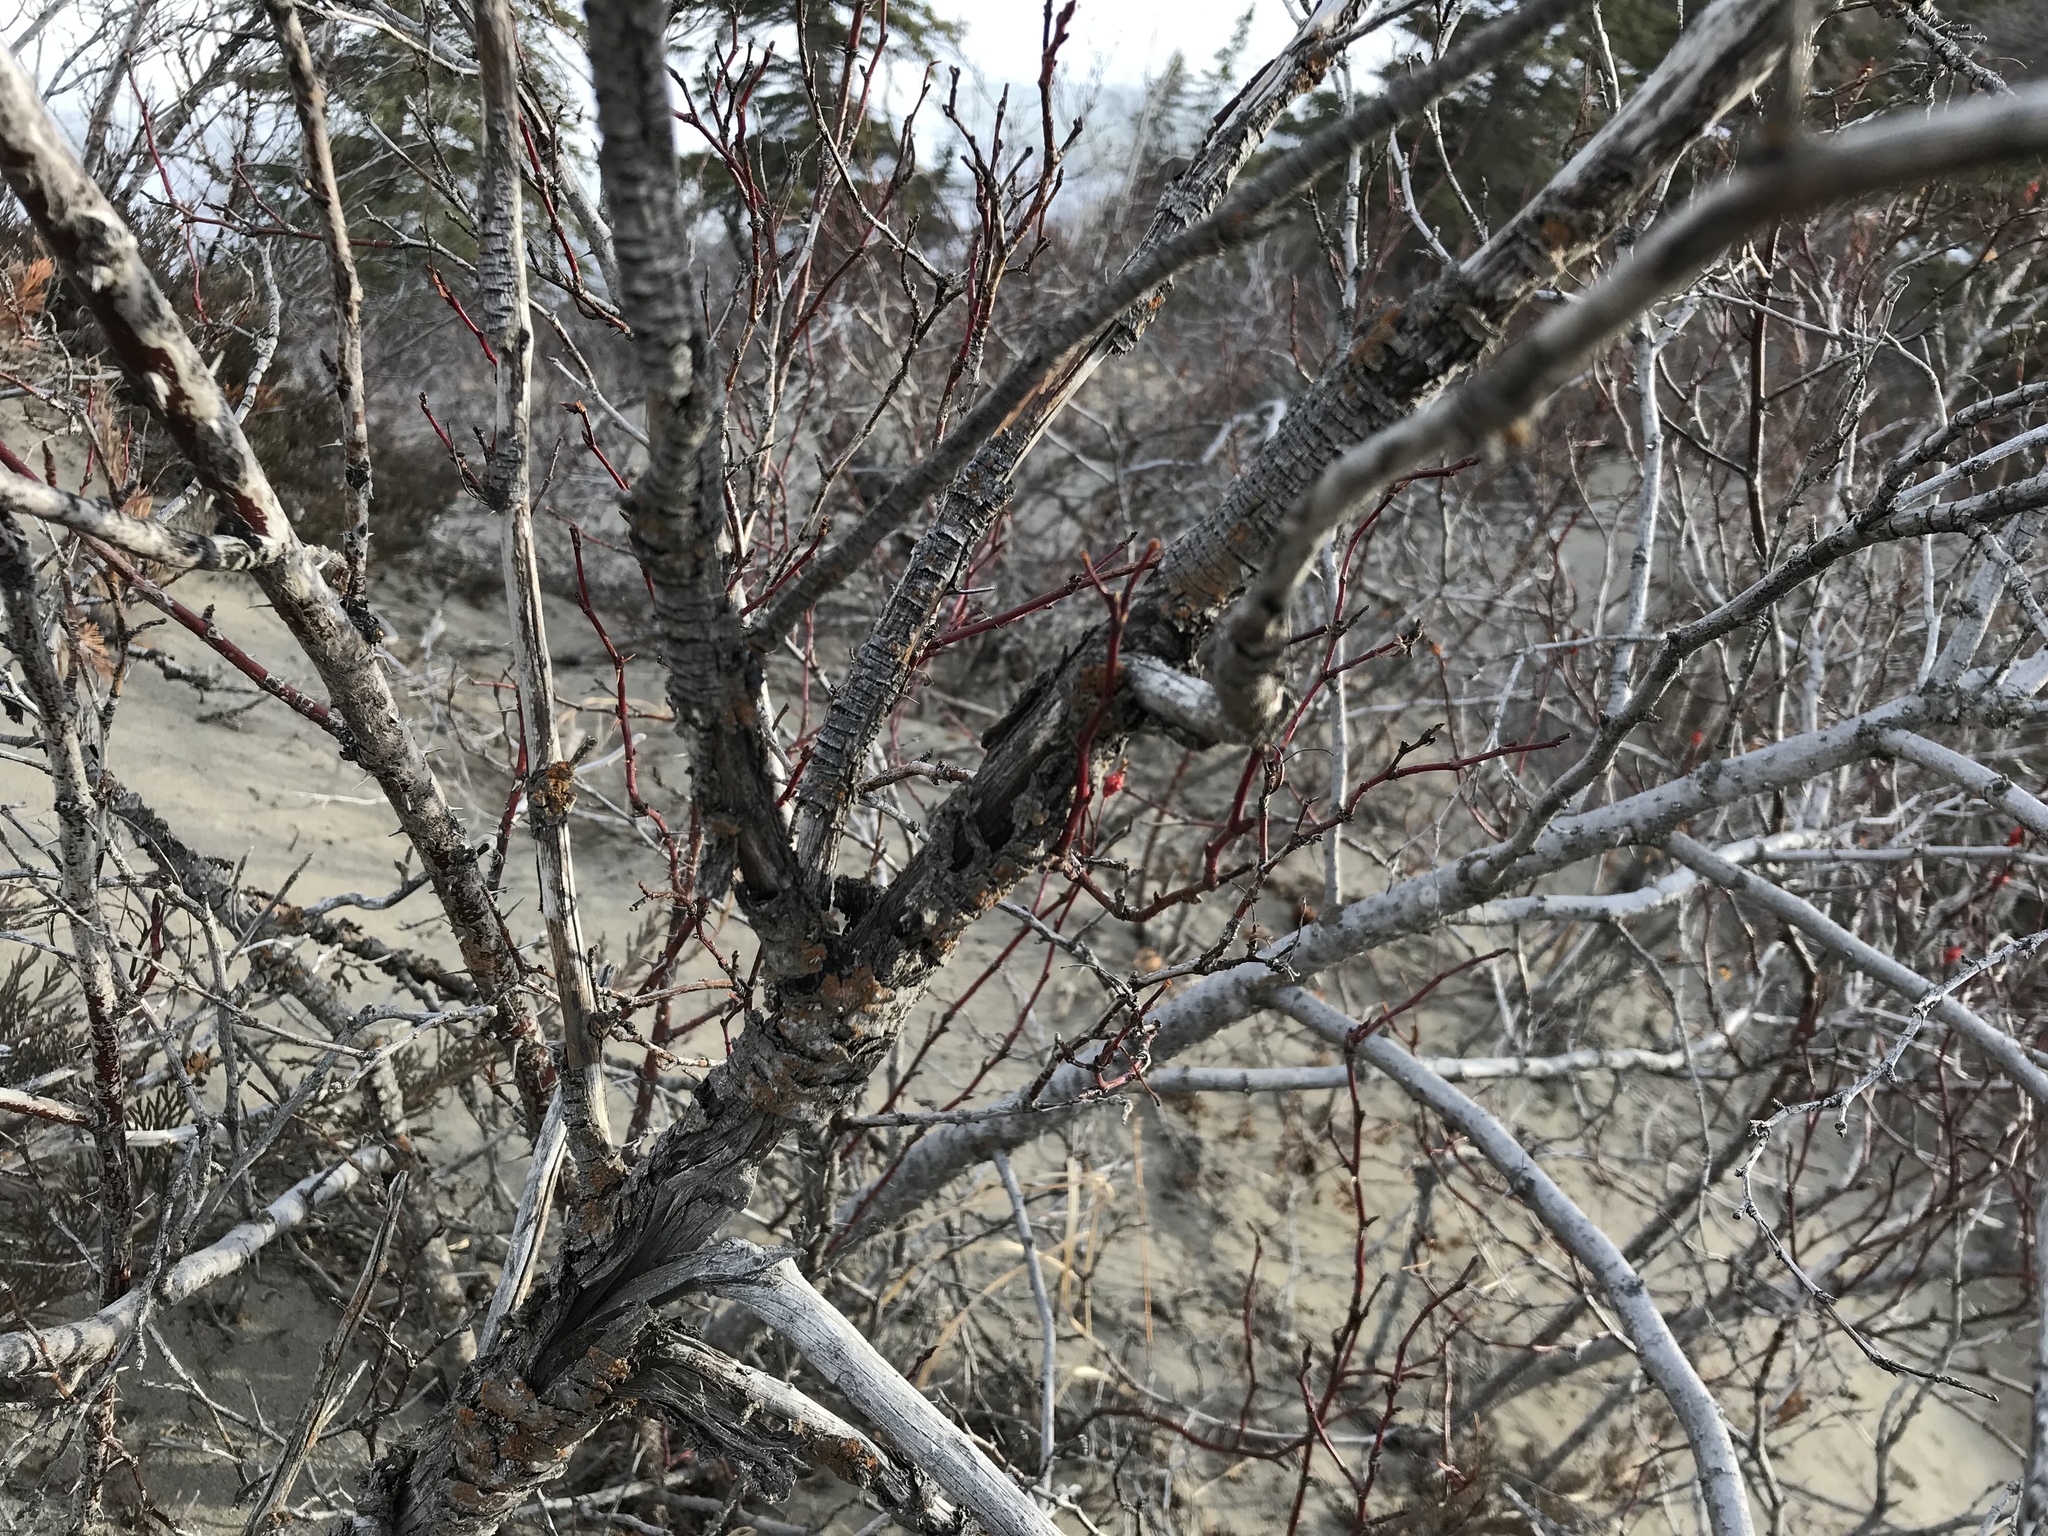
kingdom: Plantae
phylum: Tracheophyta
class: Magnoliopsida
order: Rosales
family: Rosaceae
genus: Rosa
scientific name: Rosa woodsii
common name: Woods's rose
